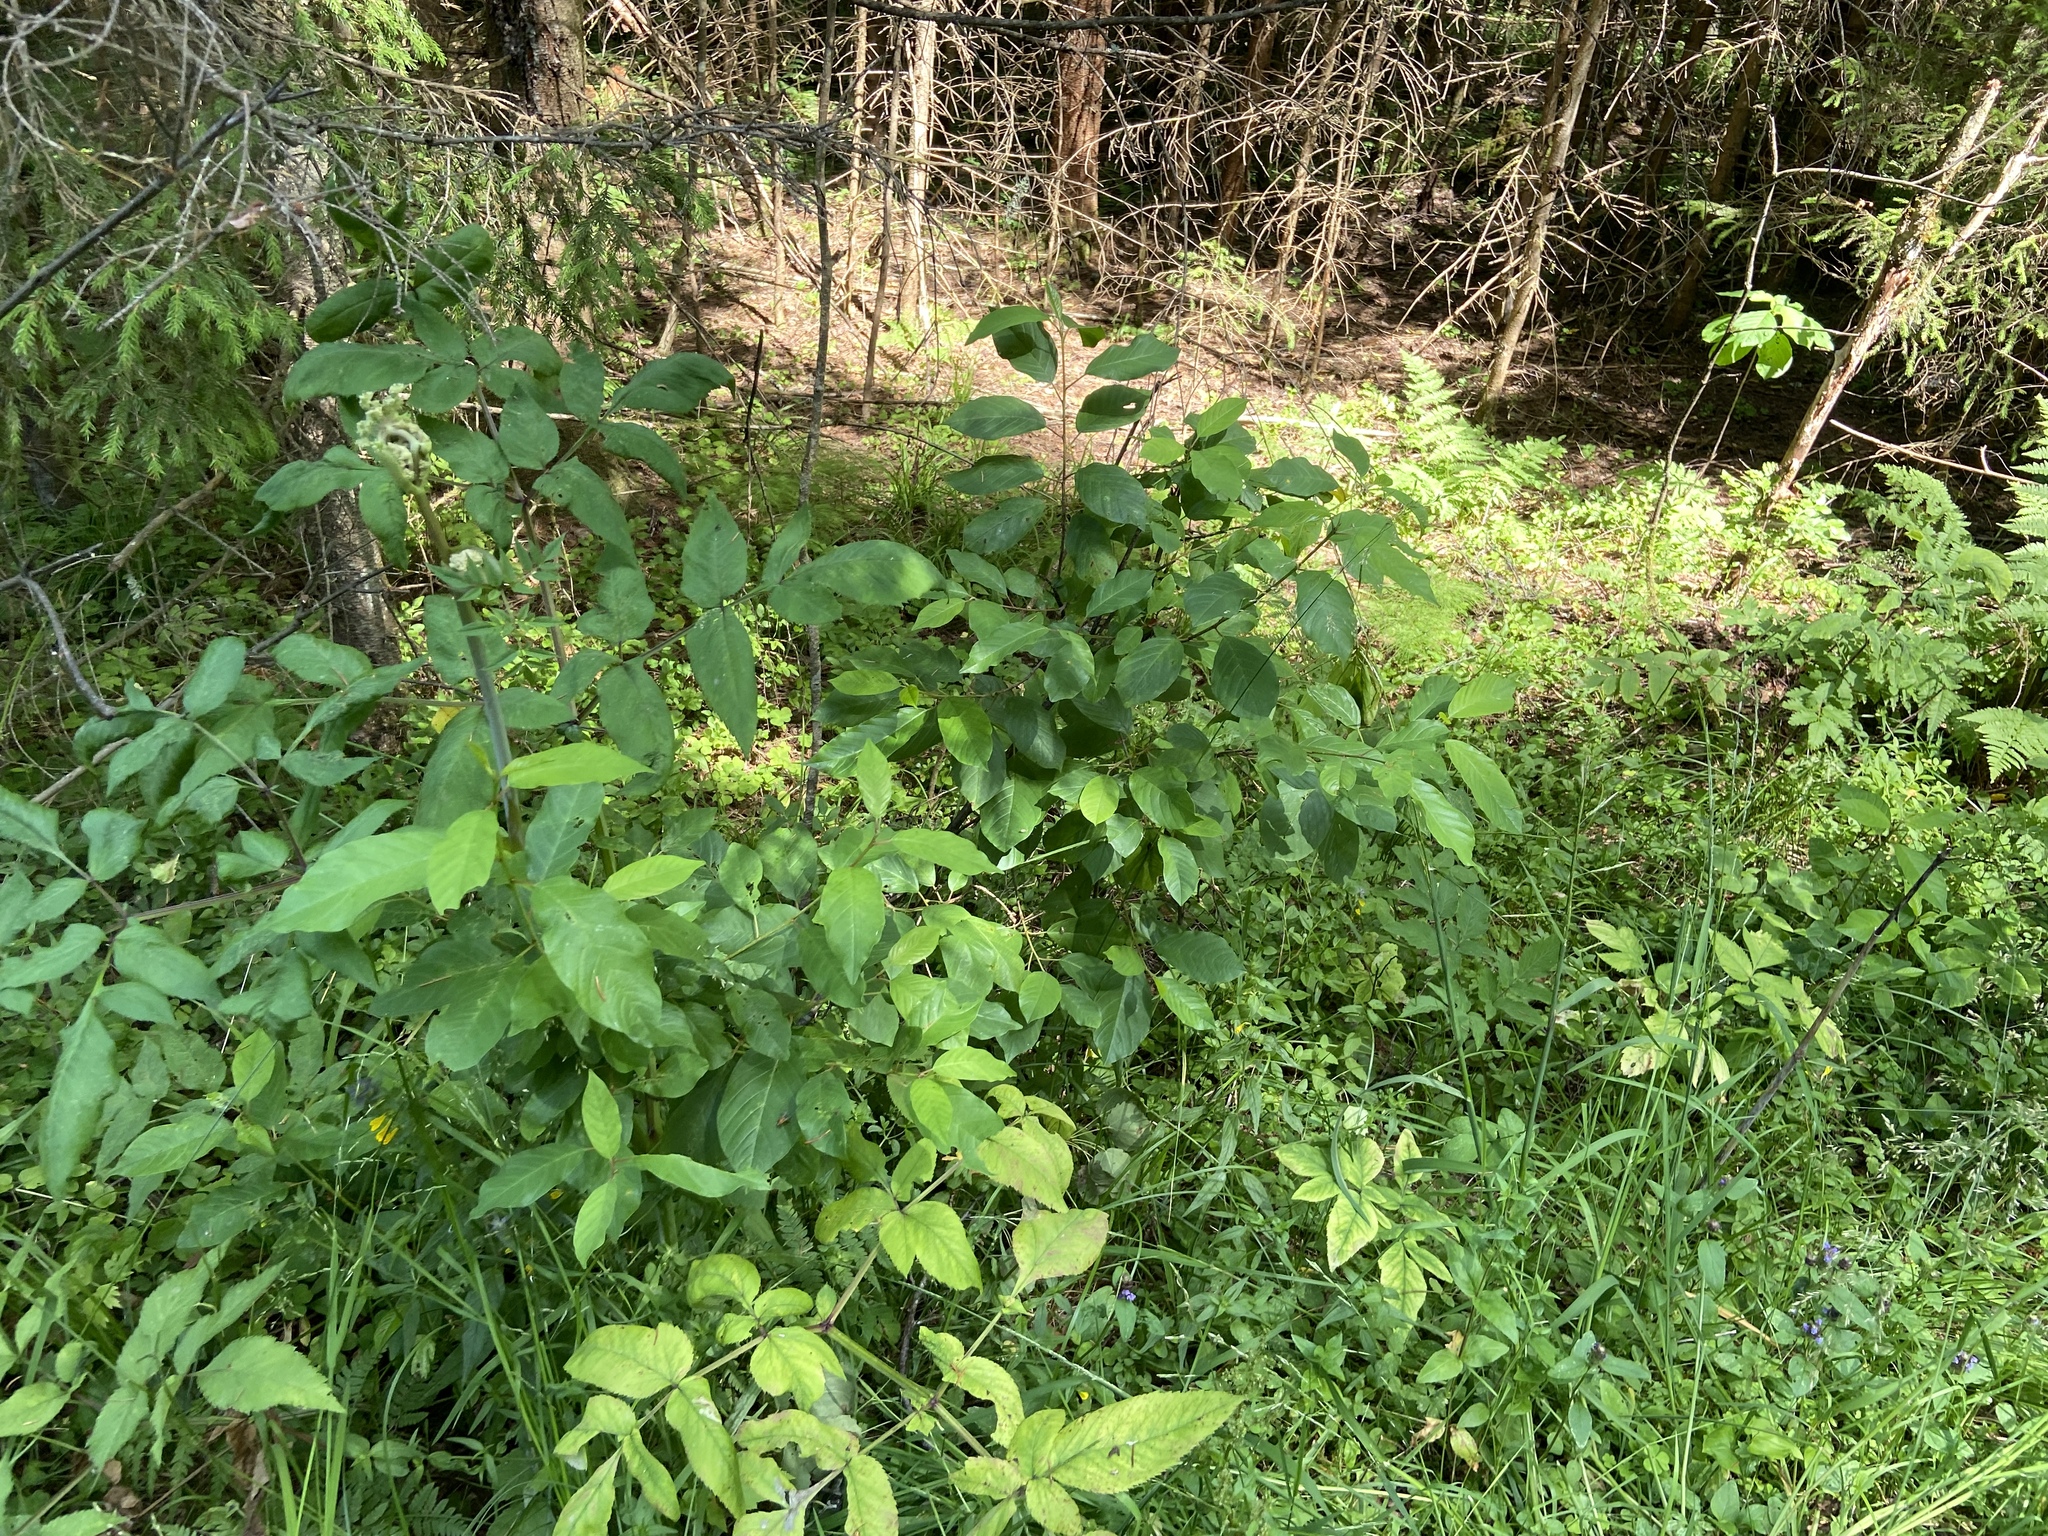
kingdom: Plantae
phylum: Tracheophyta
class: Magnoliopsida
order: Rosales
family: Rhamnaceae
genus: Frangula
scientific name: Frangula alnus
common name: Alder buckthorn
